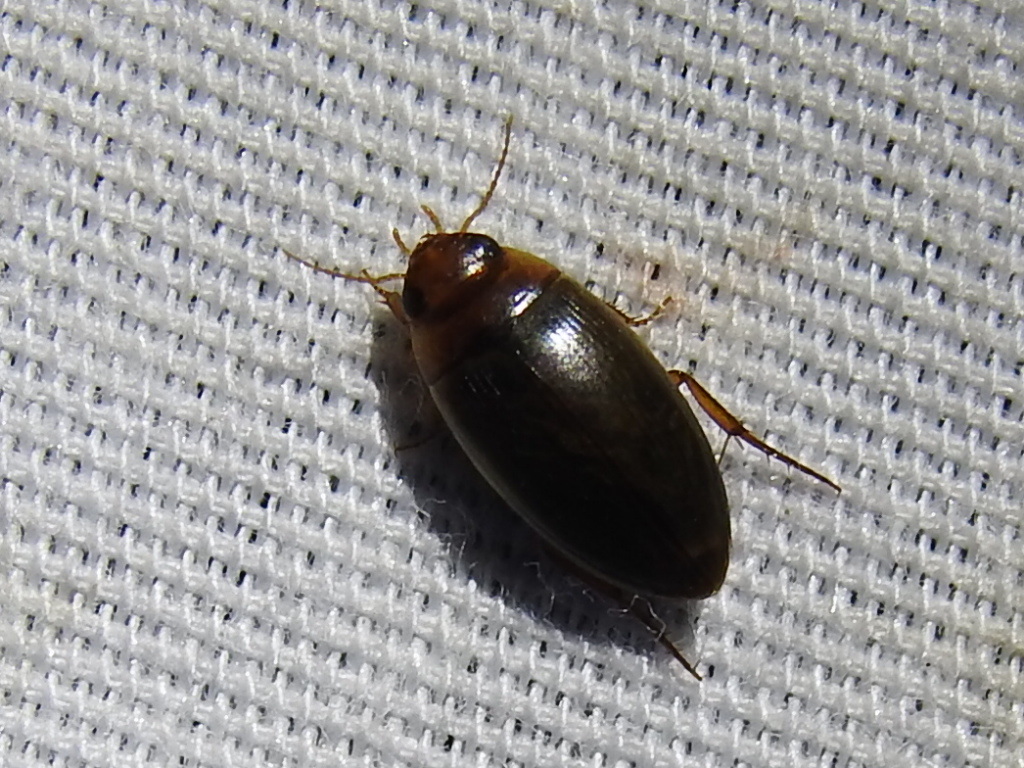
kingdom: Animalia
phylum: Arthropoda
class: Insecta
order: Coleoptera
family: Dytiscidae
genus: Copelatus
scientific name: Copelatus chevrolati
